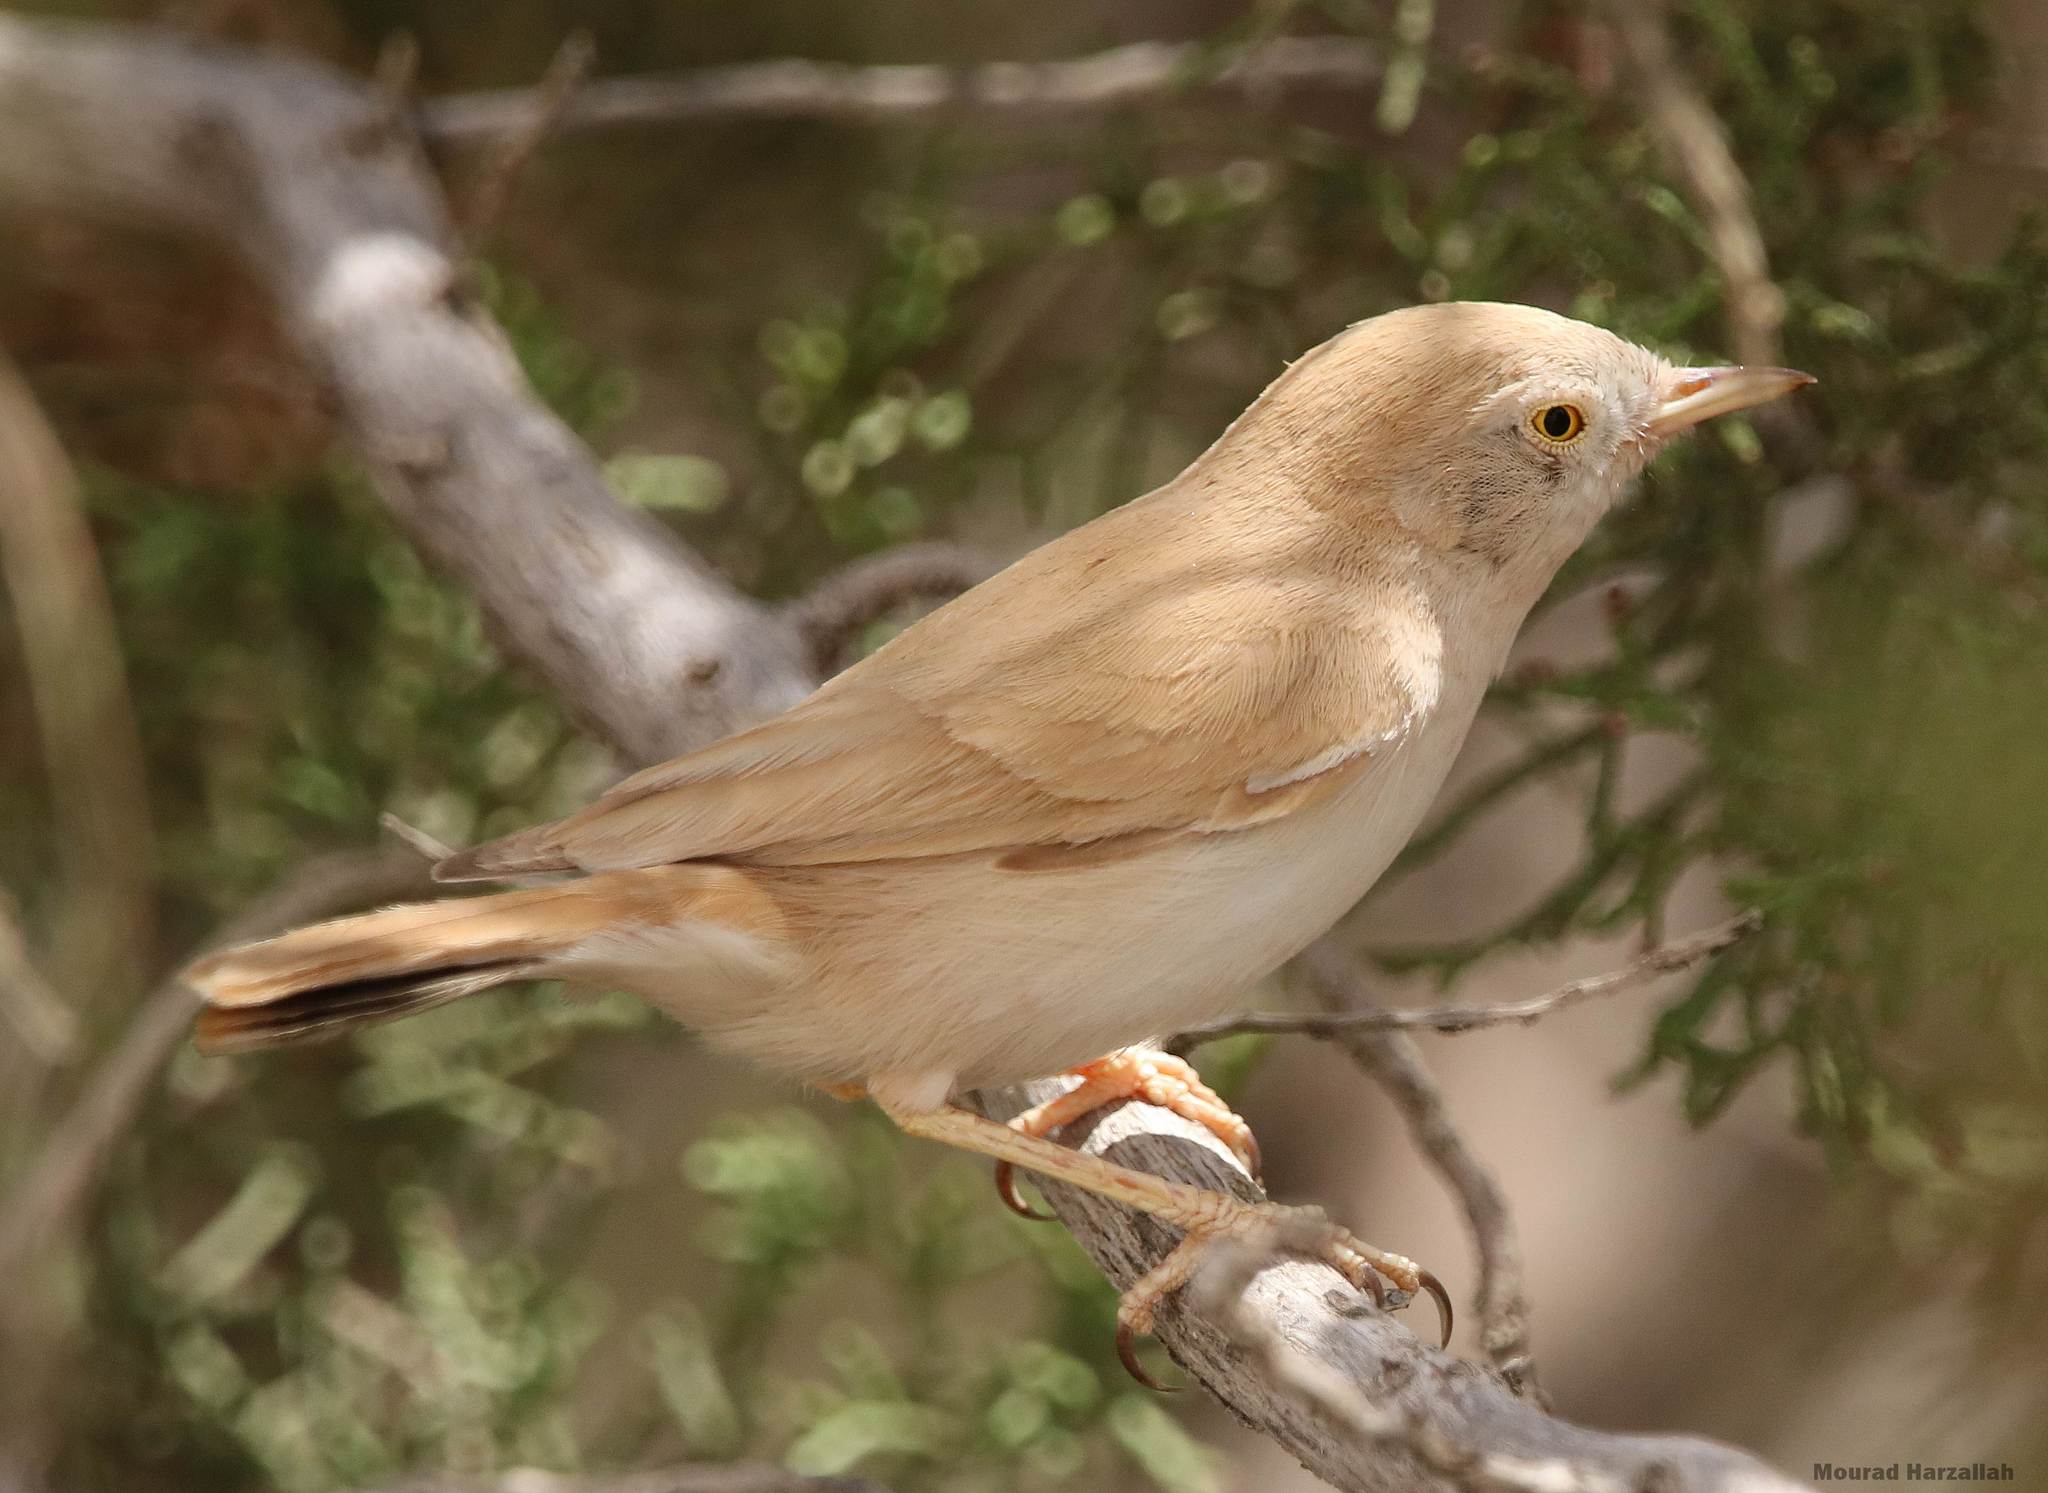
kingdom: Animalia
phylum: Chordata
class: Aves
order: Passeriformes
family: Sylviidae
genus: Sylvia
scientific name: Sylvia deserti
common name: African desert warbler
